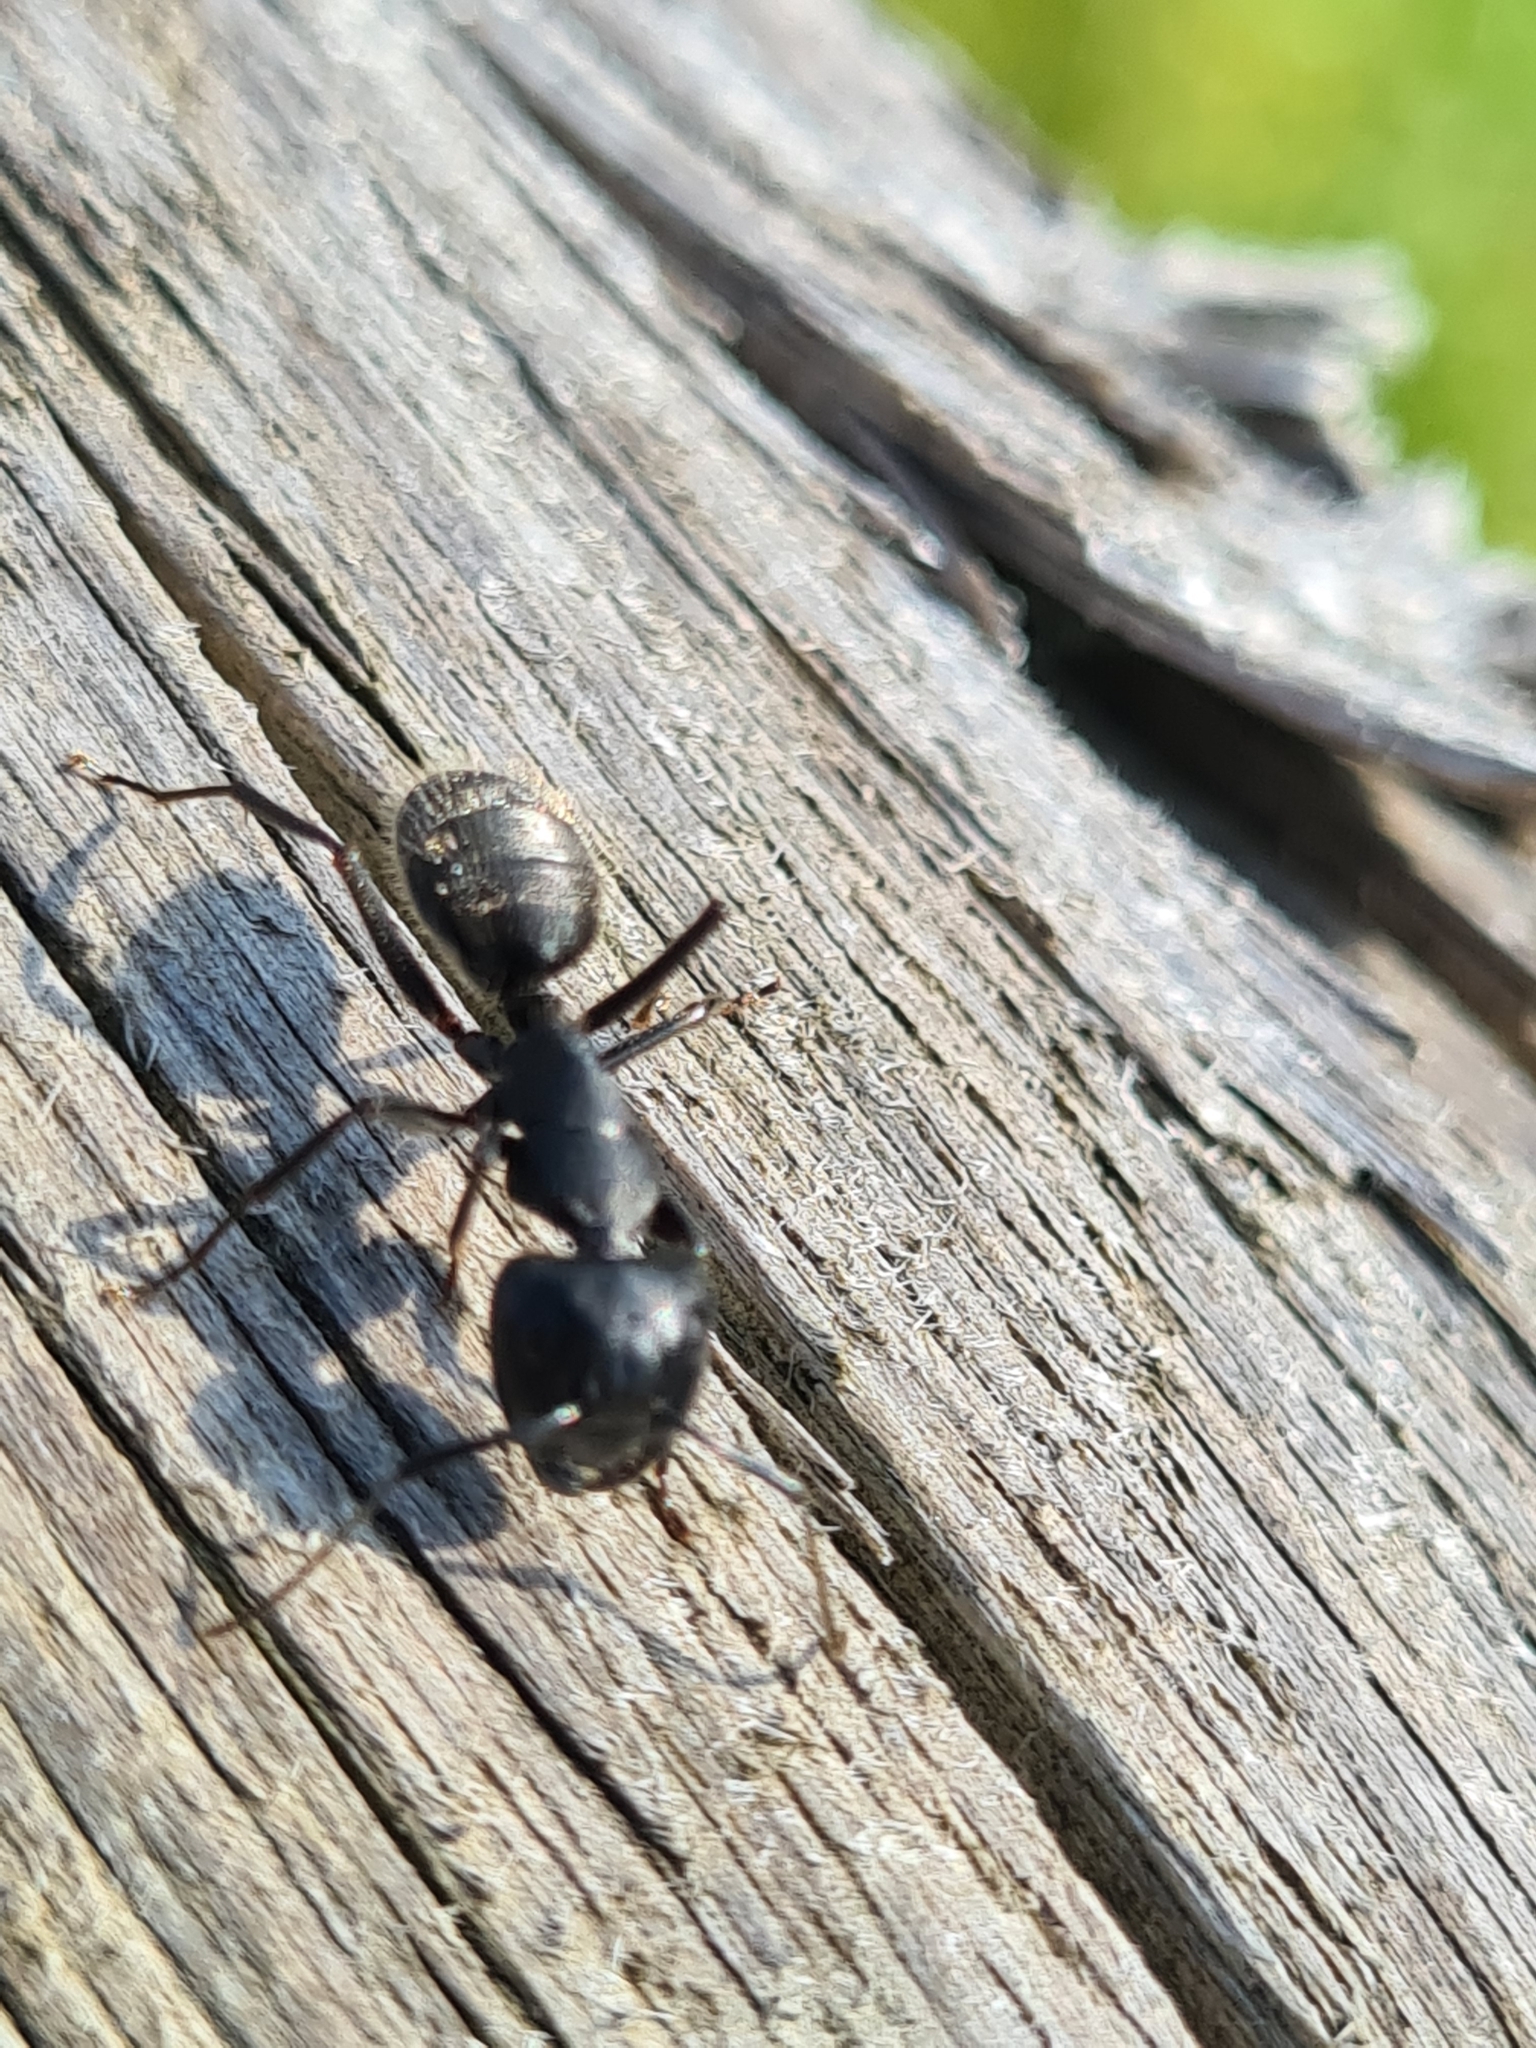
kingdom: Animalia
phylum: Arthropoda
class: Insecta
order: Hymenoptera
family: Formicidae
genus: Camponotus
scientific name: Camponotus vagus
